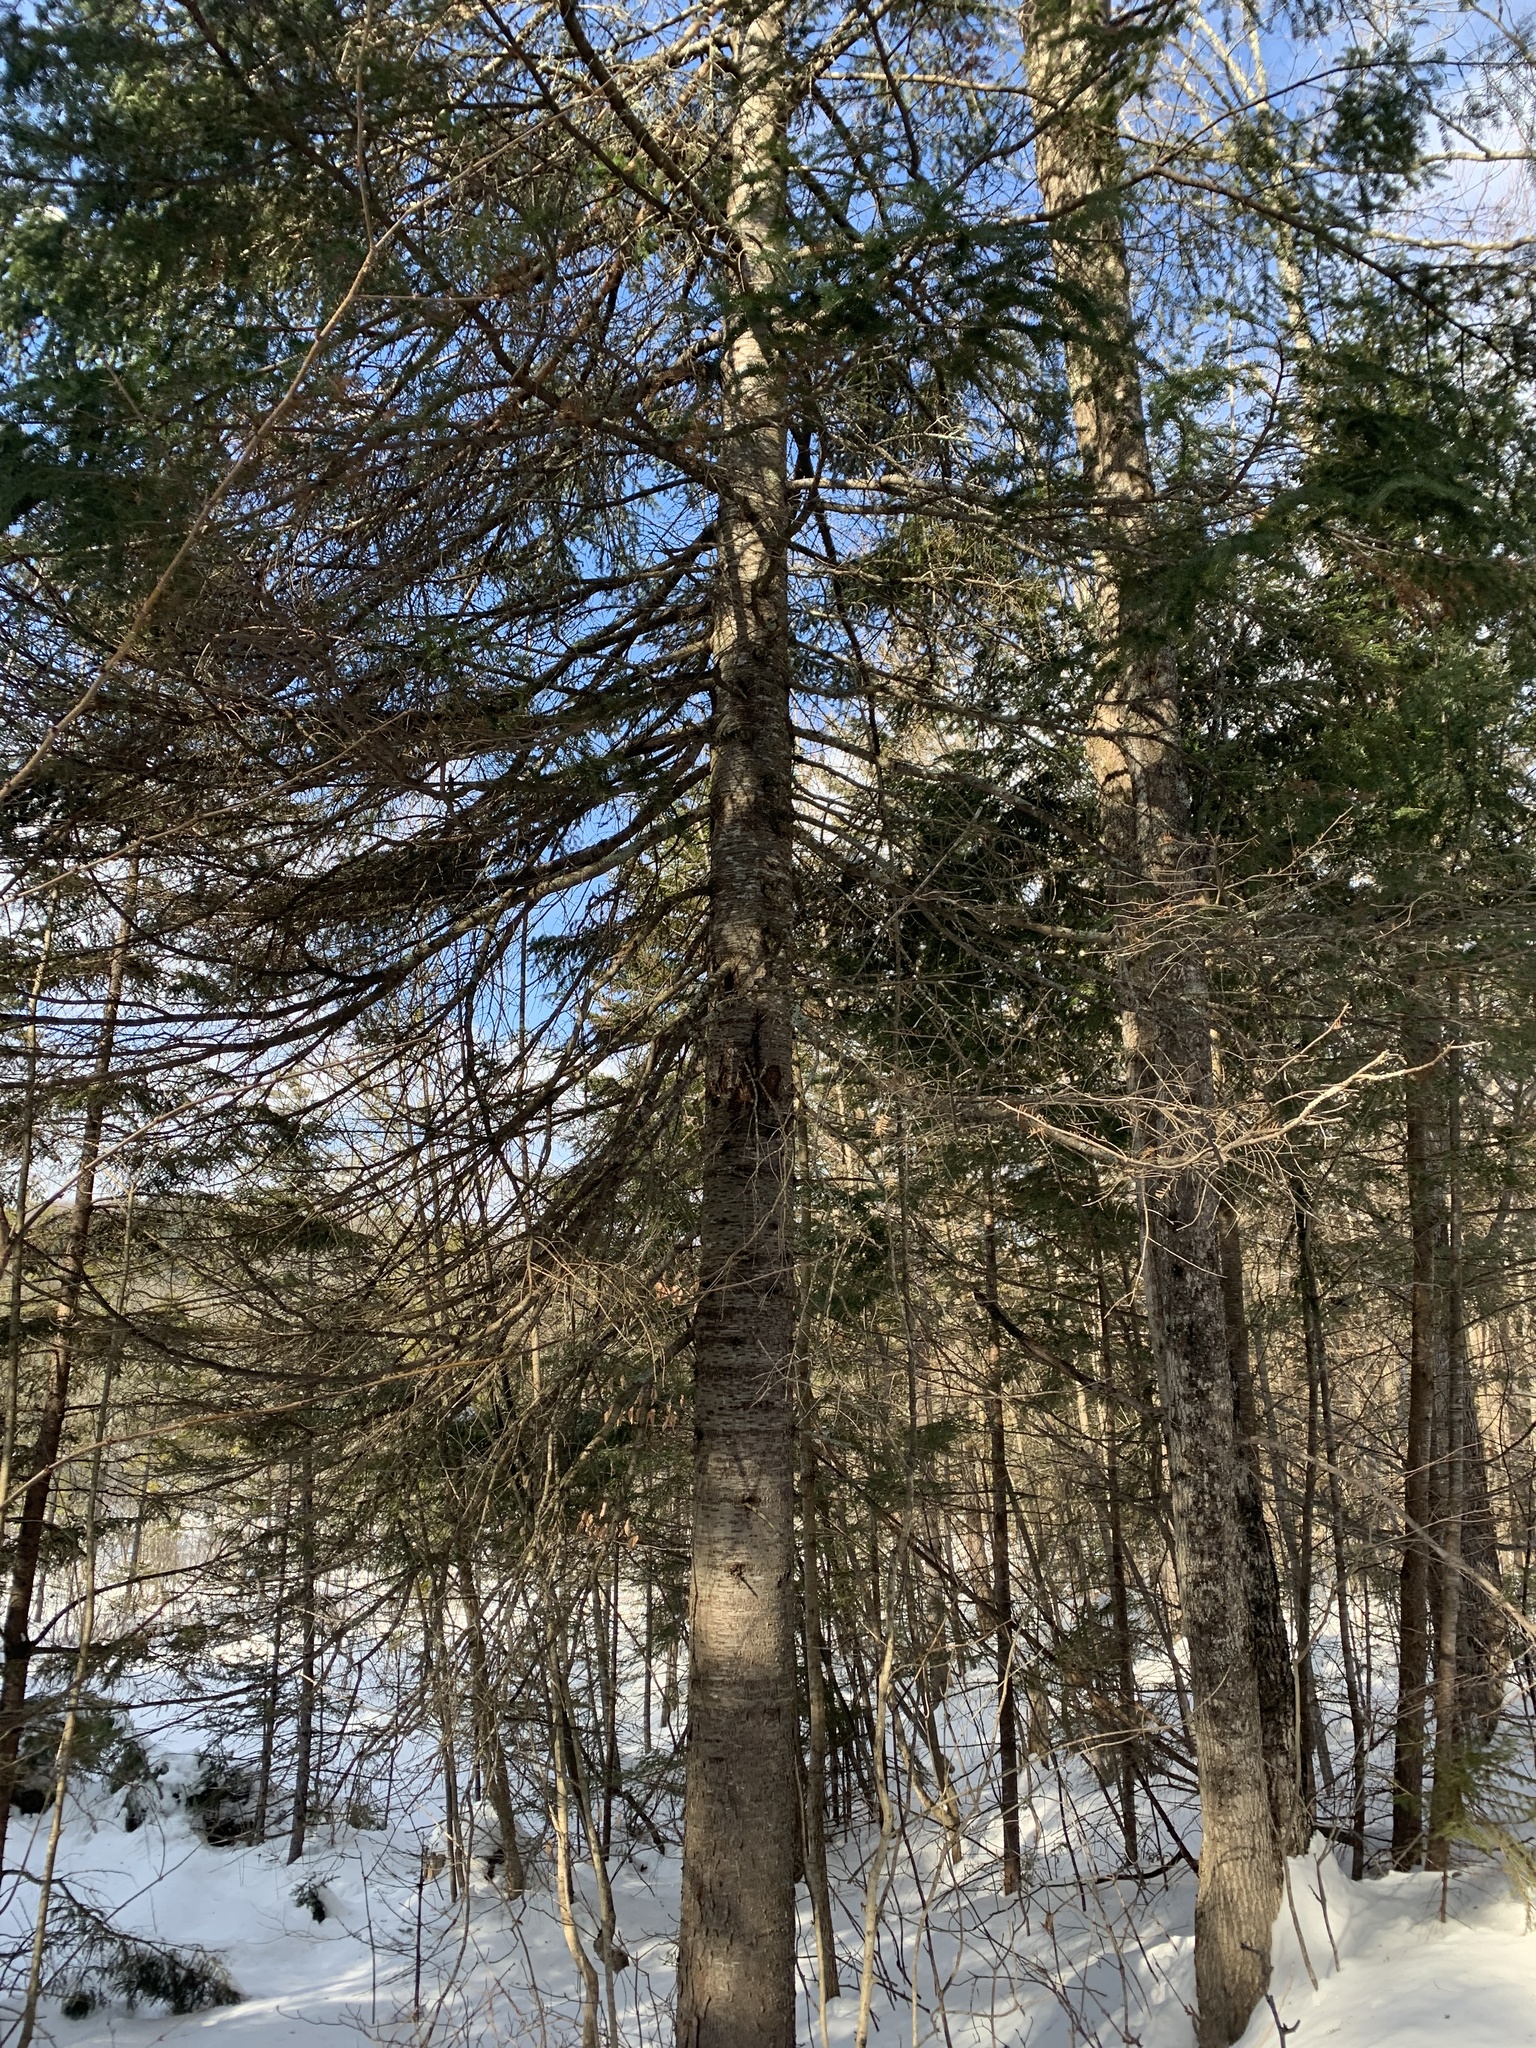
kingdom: Plantae
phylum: Tracheophyta
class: Pinopsida
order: Pinales
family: Pinaceae
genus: Abies
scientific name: Abies balsamea
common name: Balsam fir
